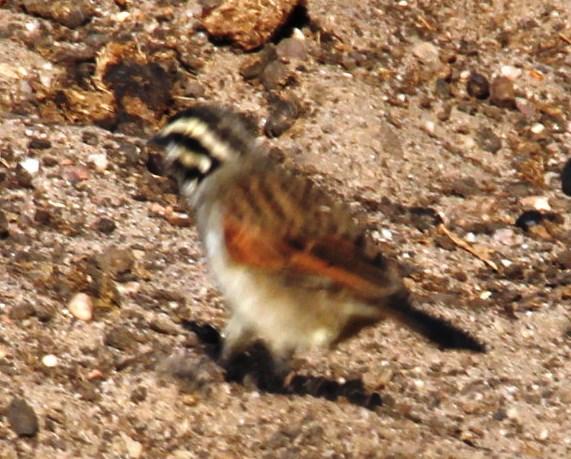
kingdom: Animalia
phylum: Chordata
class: Aves
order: Passeriformes
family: Emberizidae
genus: Emberiza
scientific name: Emberiza capensis
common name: Cape bunting
